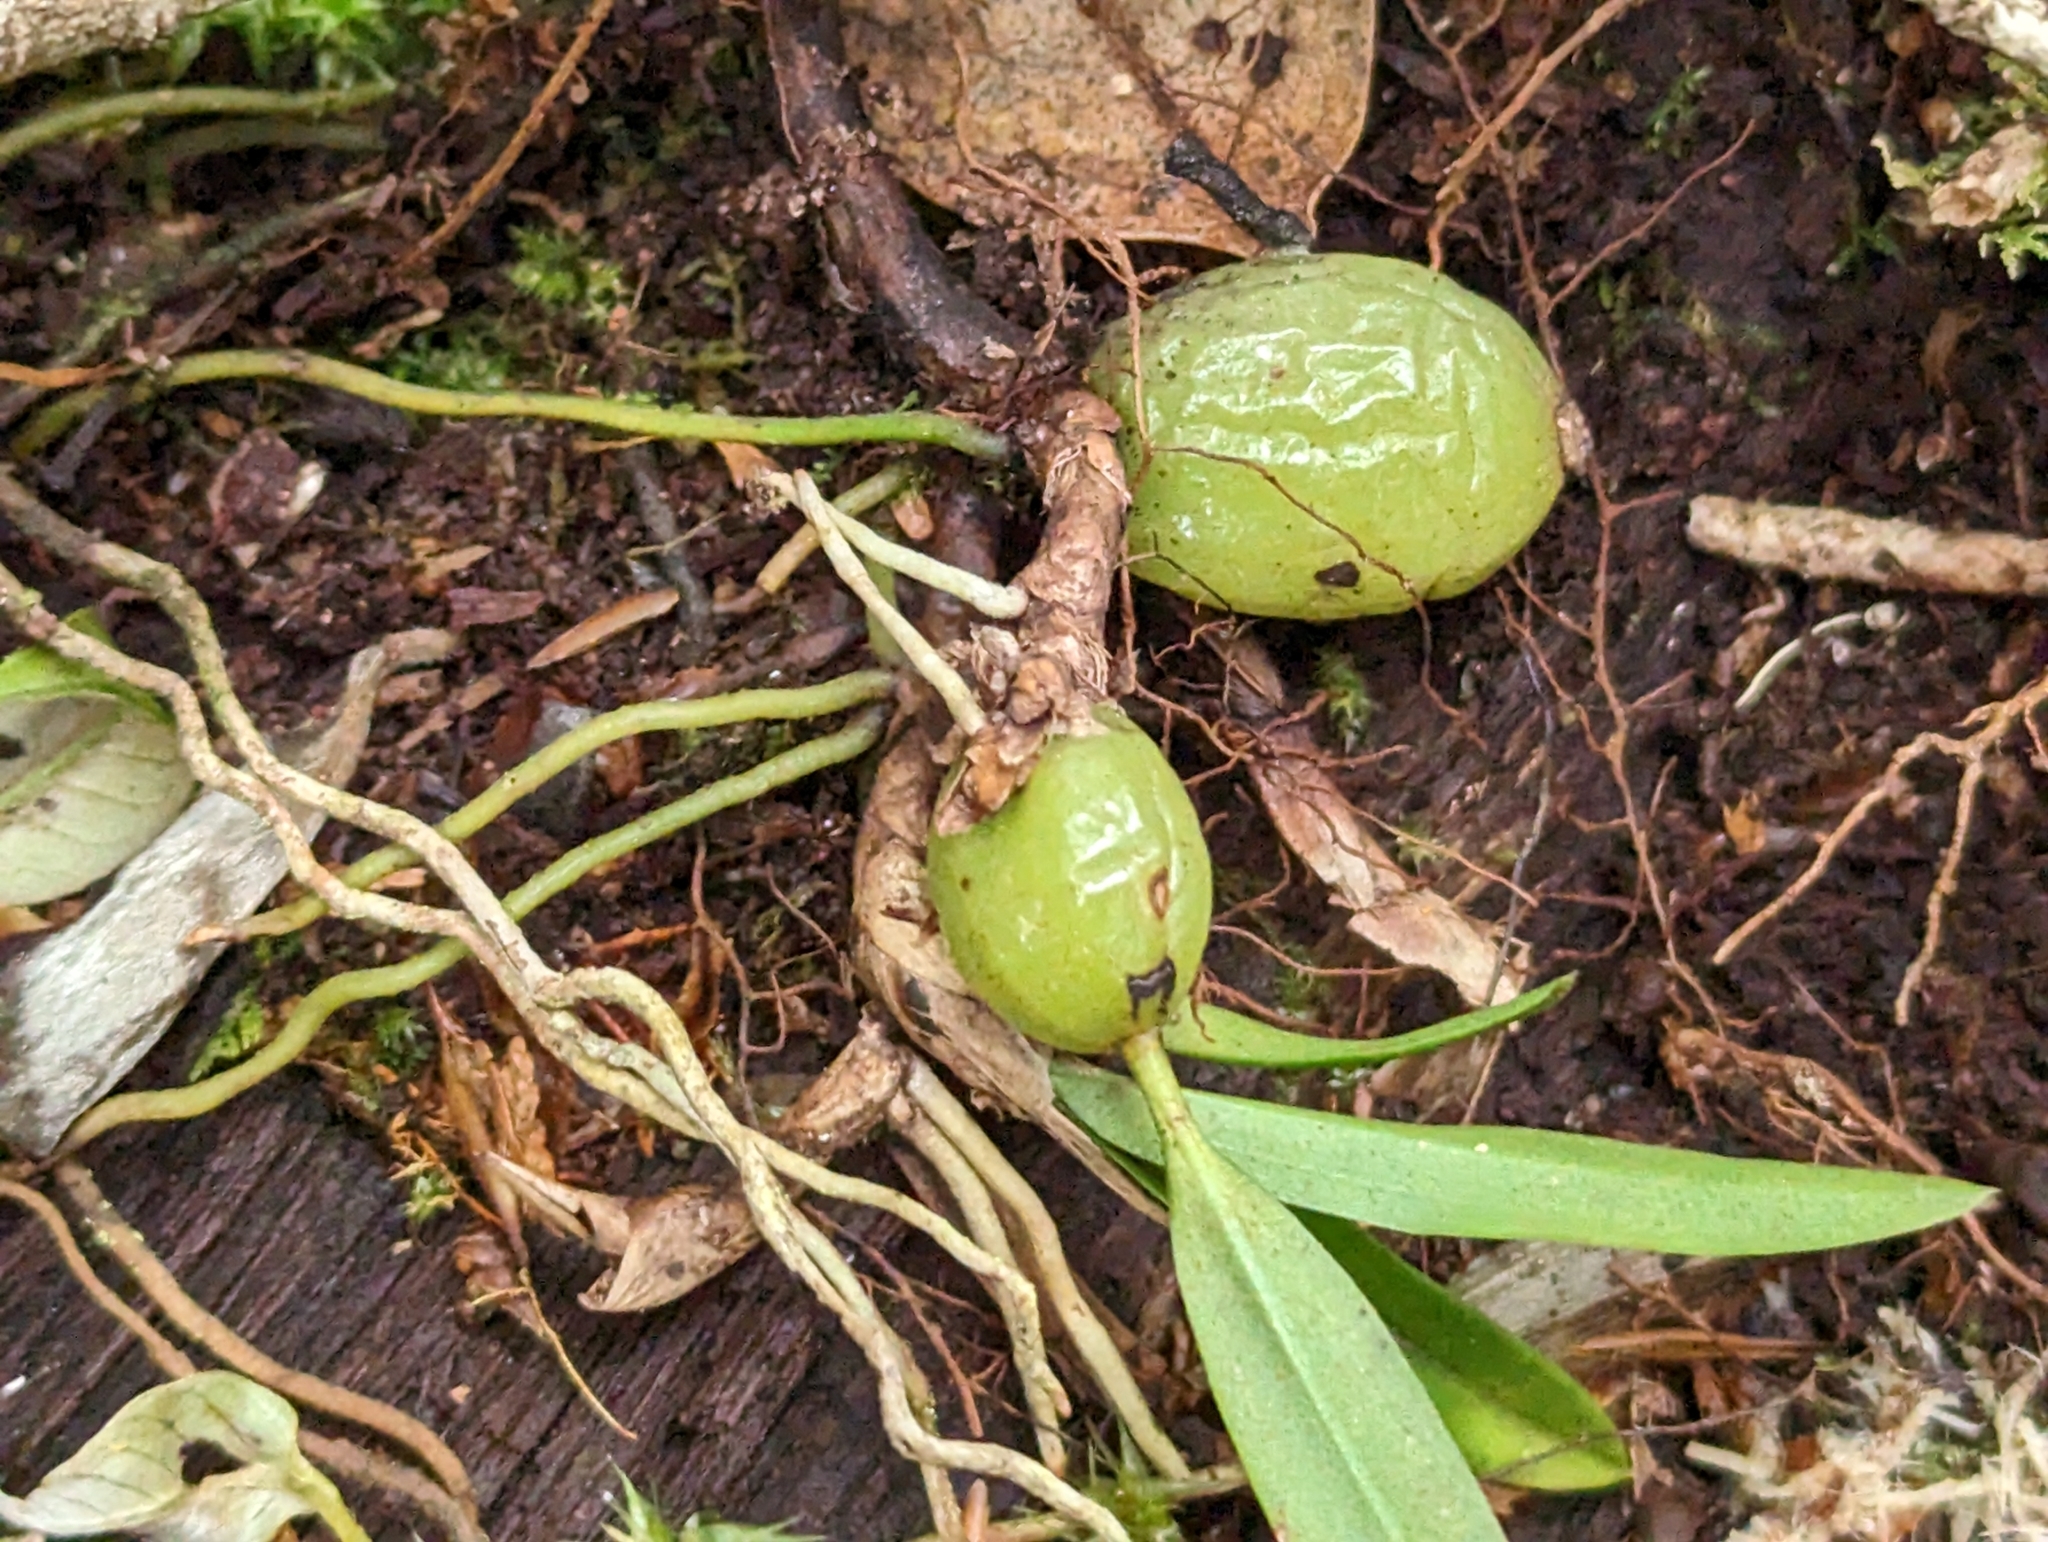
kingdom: Plantae
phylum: Tracheophyta
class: Liliopsida
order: Asparagales
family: Orchidaceae
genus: Bulbophyllum
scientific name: Bulbophyllum bifurcatoflorens
